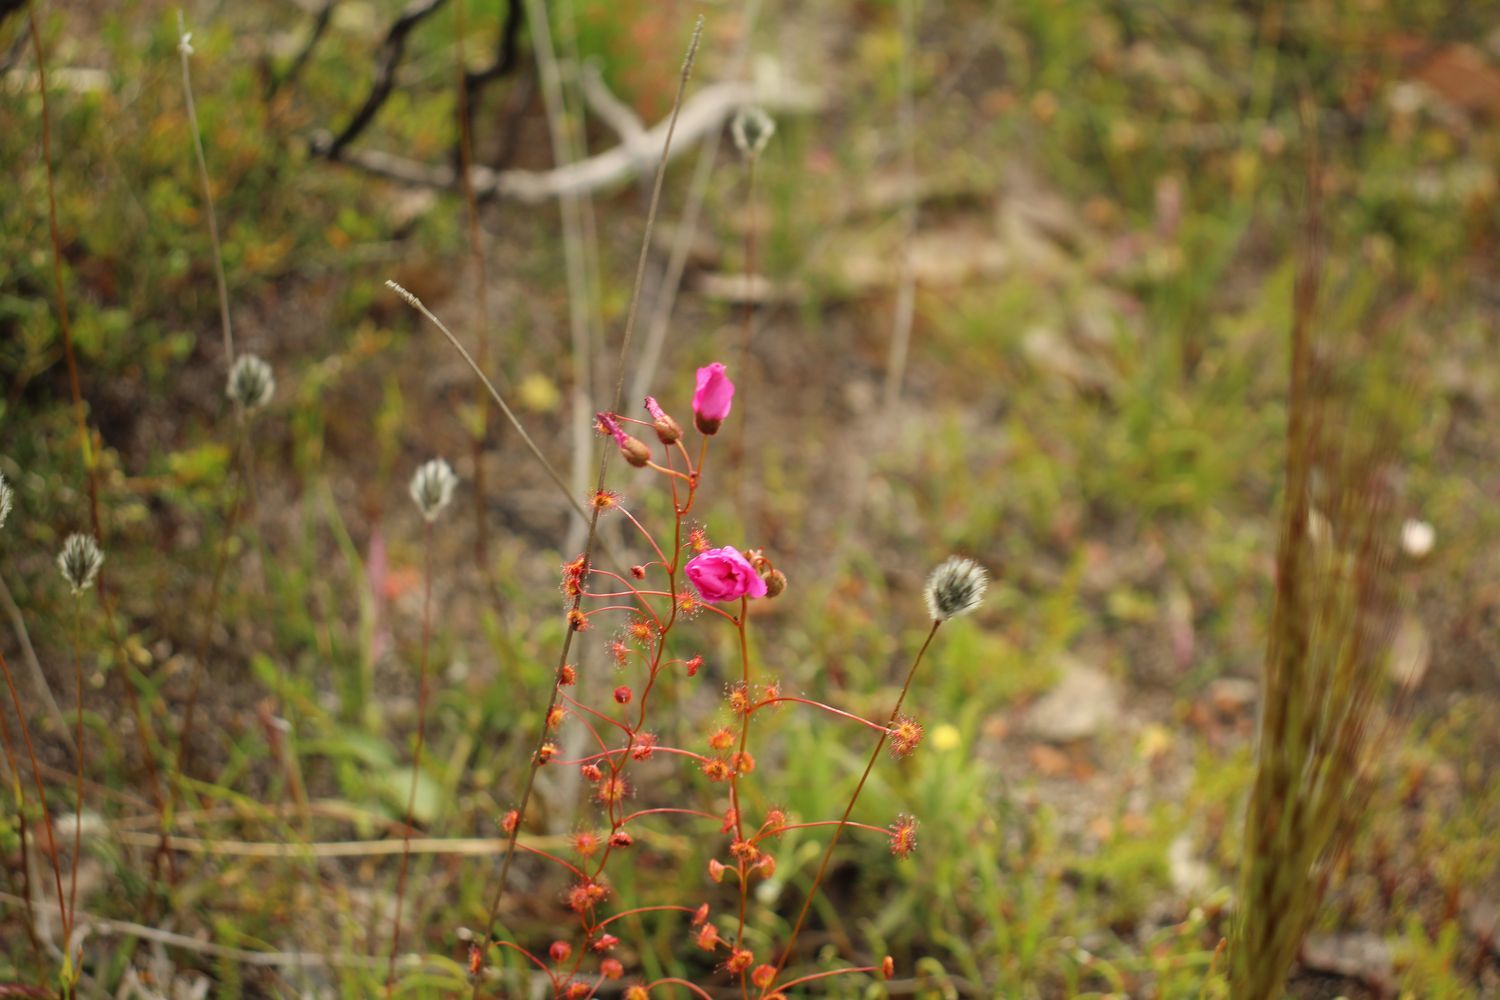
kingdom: Plantae
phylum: Tracheophyta
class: Magnoliopsida
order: Caryophyllales
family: Droseraceae
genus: Drosera
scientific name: Drosera
